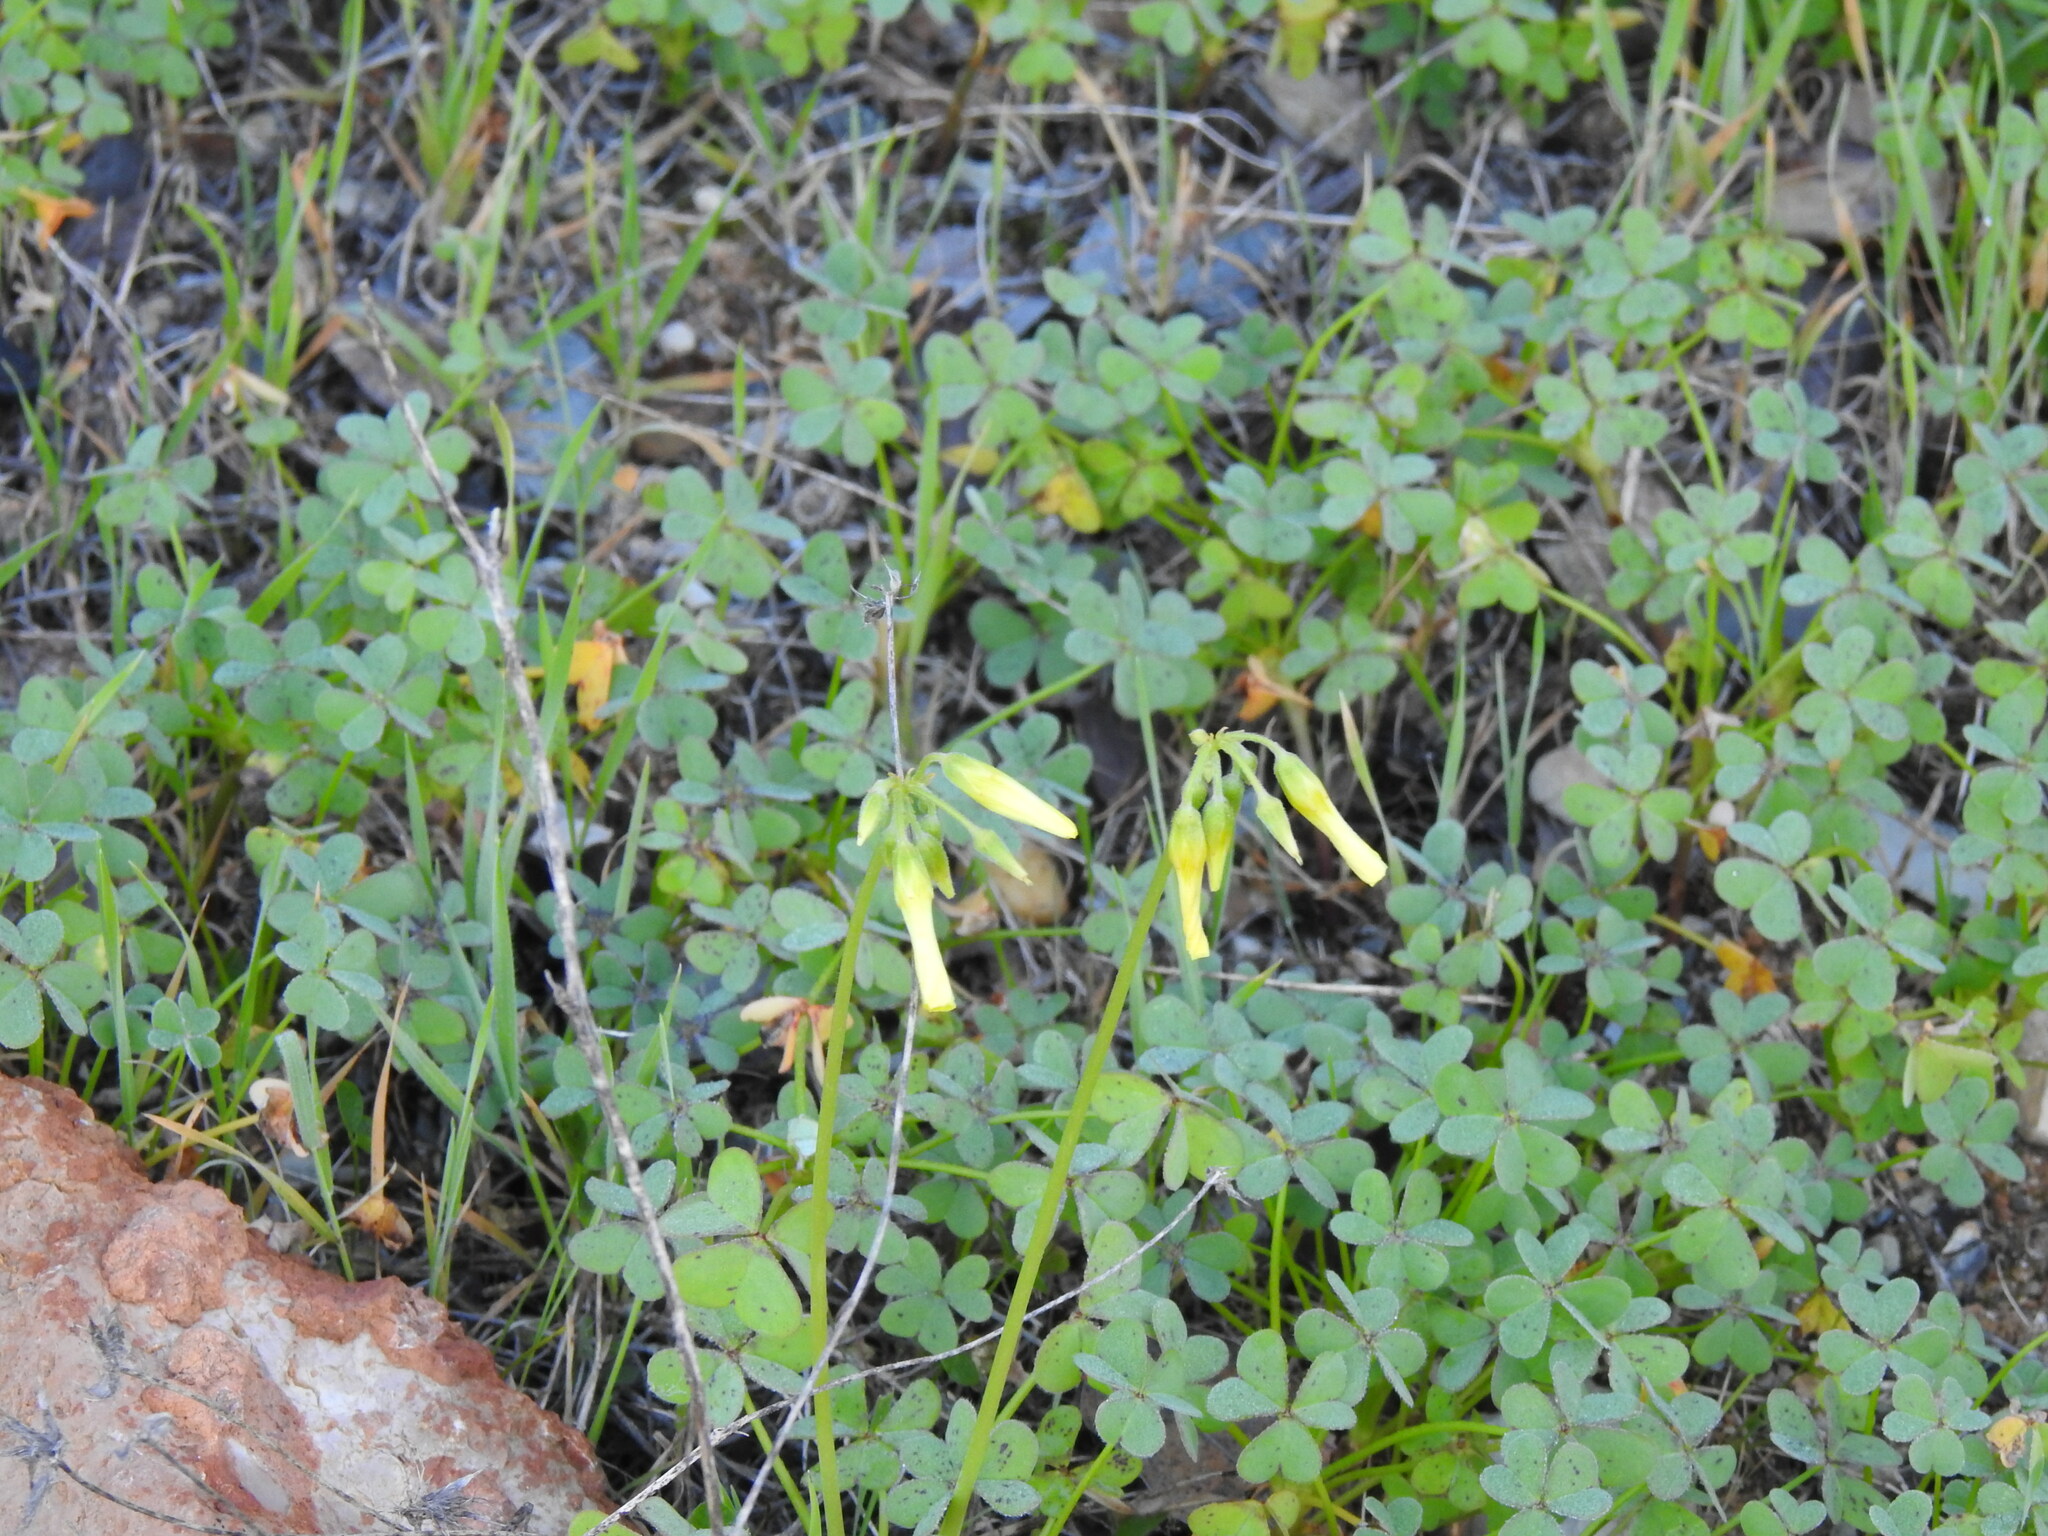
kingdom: Plantae
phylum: Tracheophyta
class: Magnoliopsida
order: Oxalidales
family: Oxalidaceae
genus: Oxalis
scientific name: Oxalis pes-caprae
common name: Bermuda-buttercup
